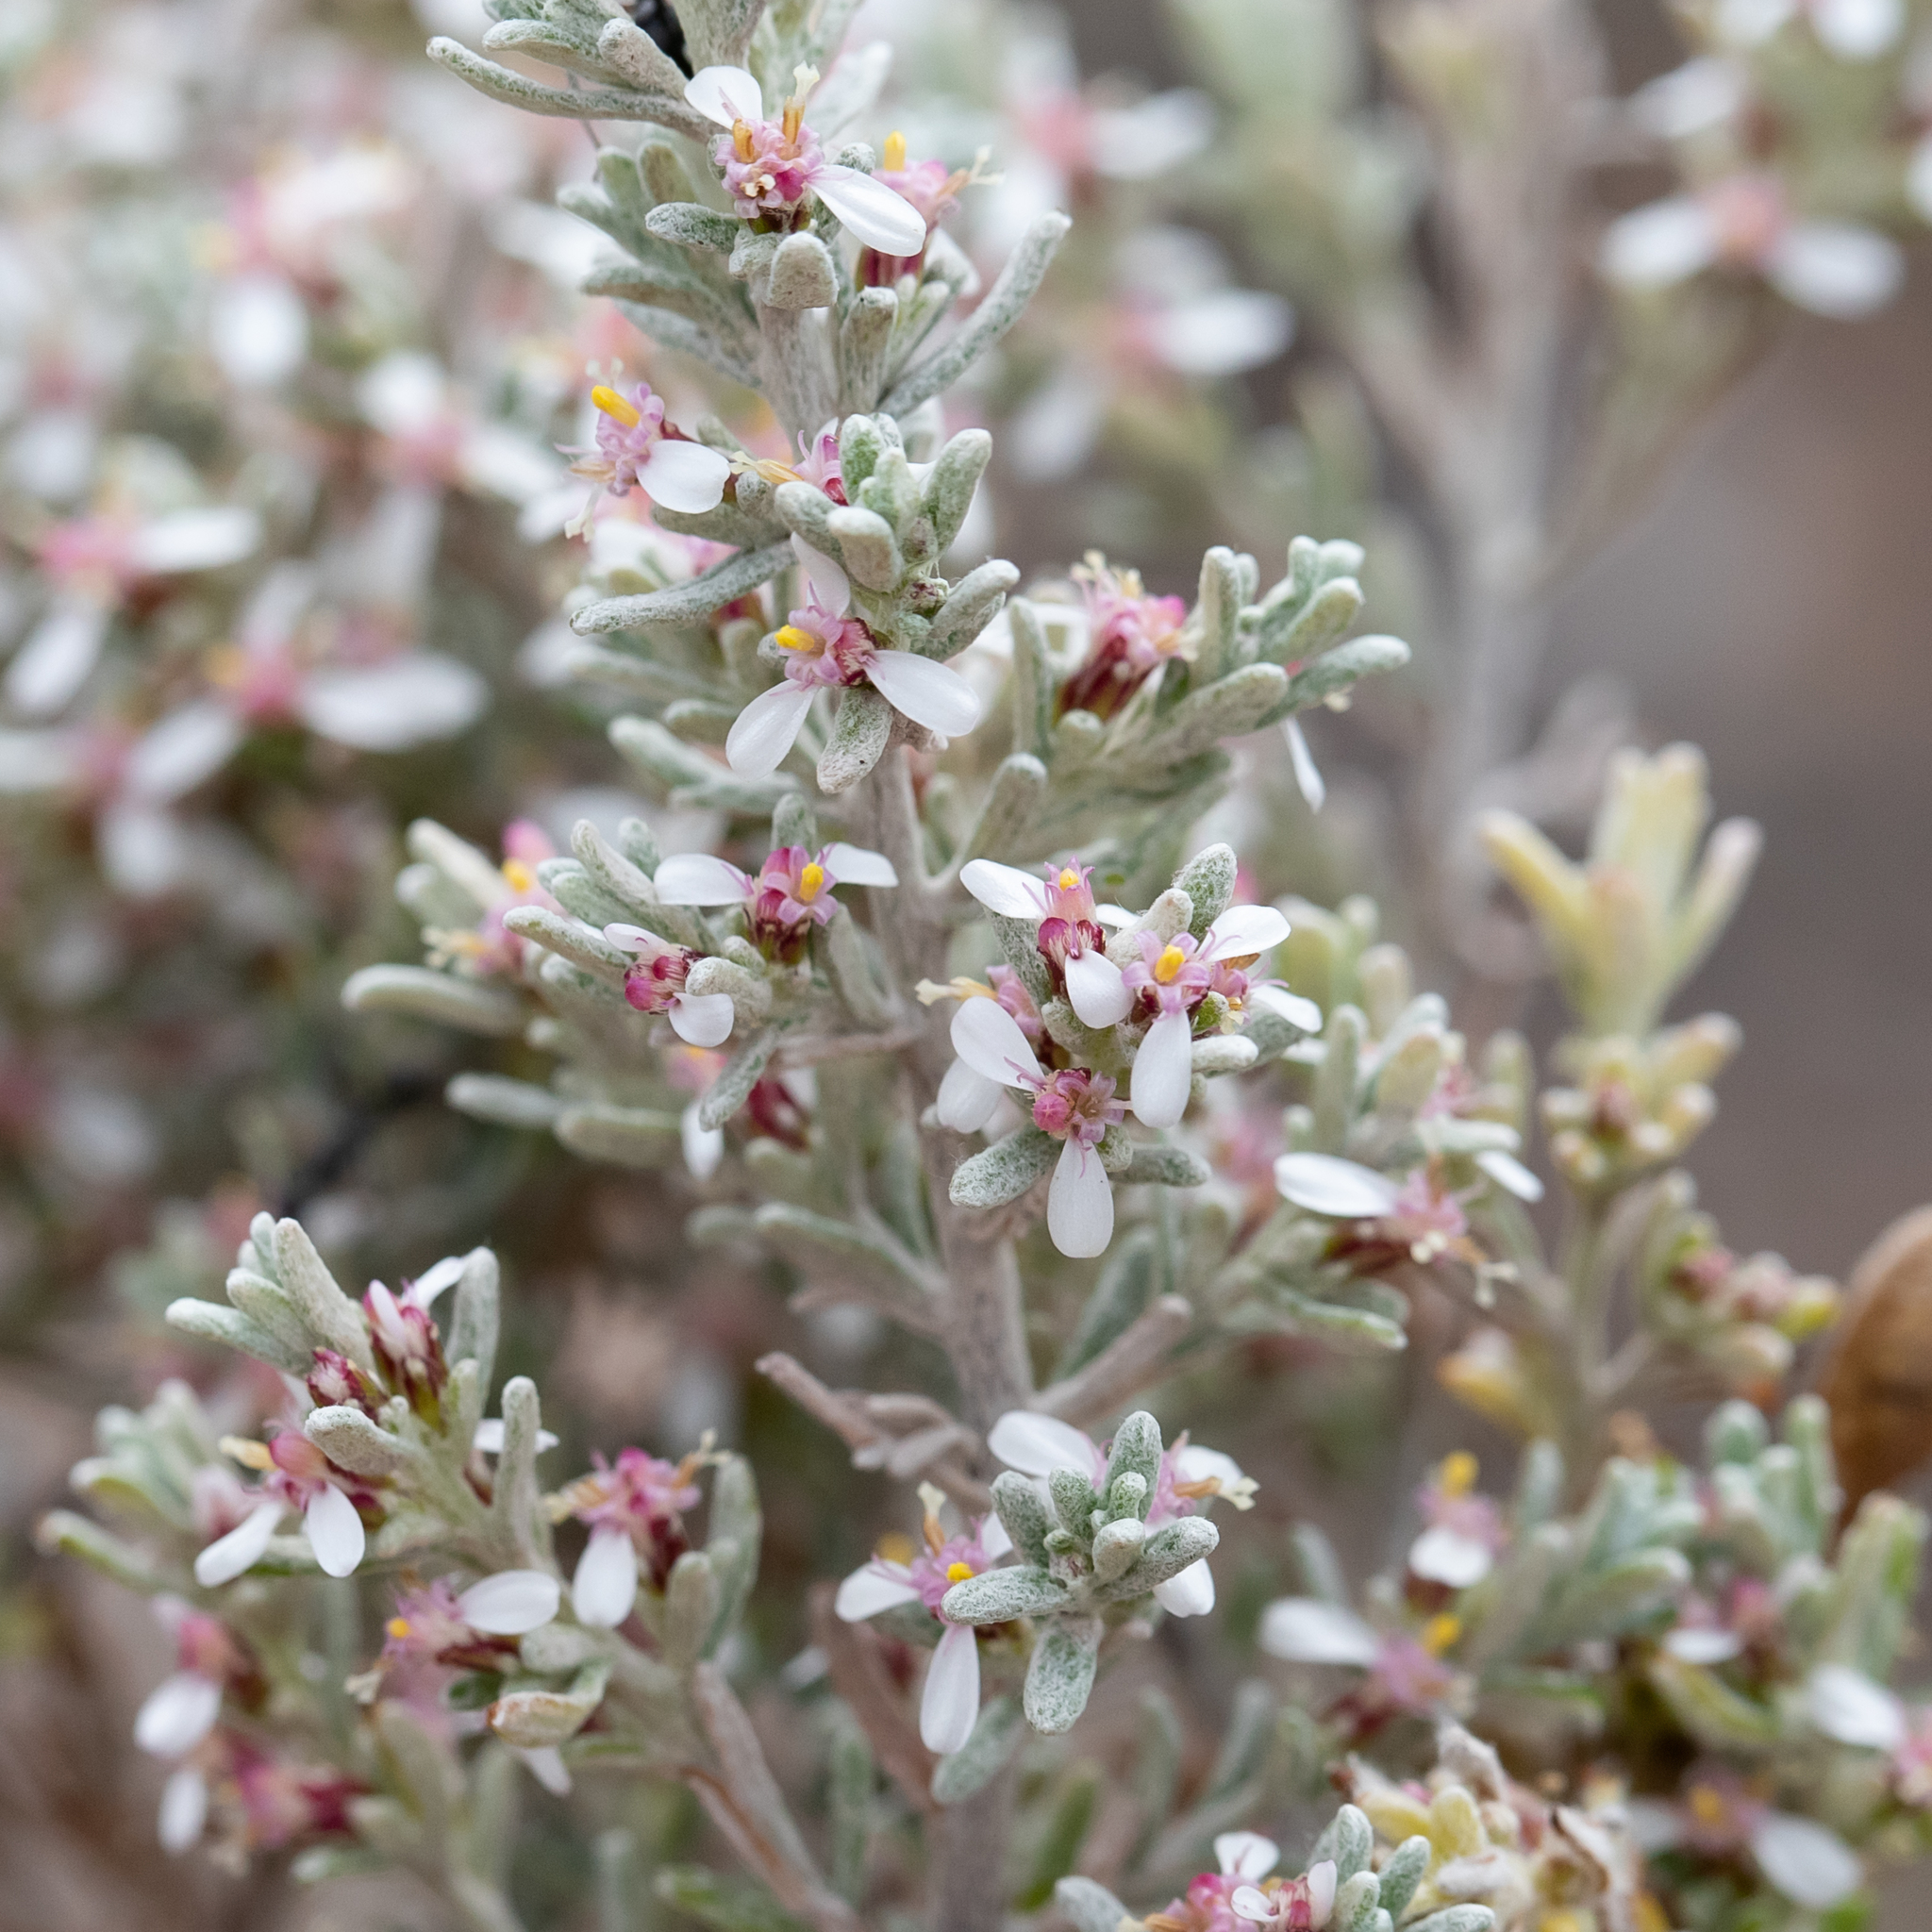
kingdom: Plantae
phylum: Tracheophyta
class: Magnoliopsida
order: Asterales
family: Asteraceae
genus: Olearia
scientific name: Olearia ramulosa
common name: Twiggy daisybush
